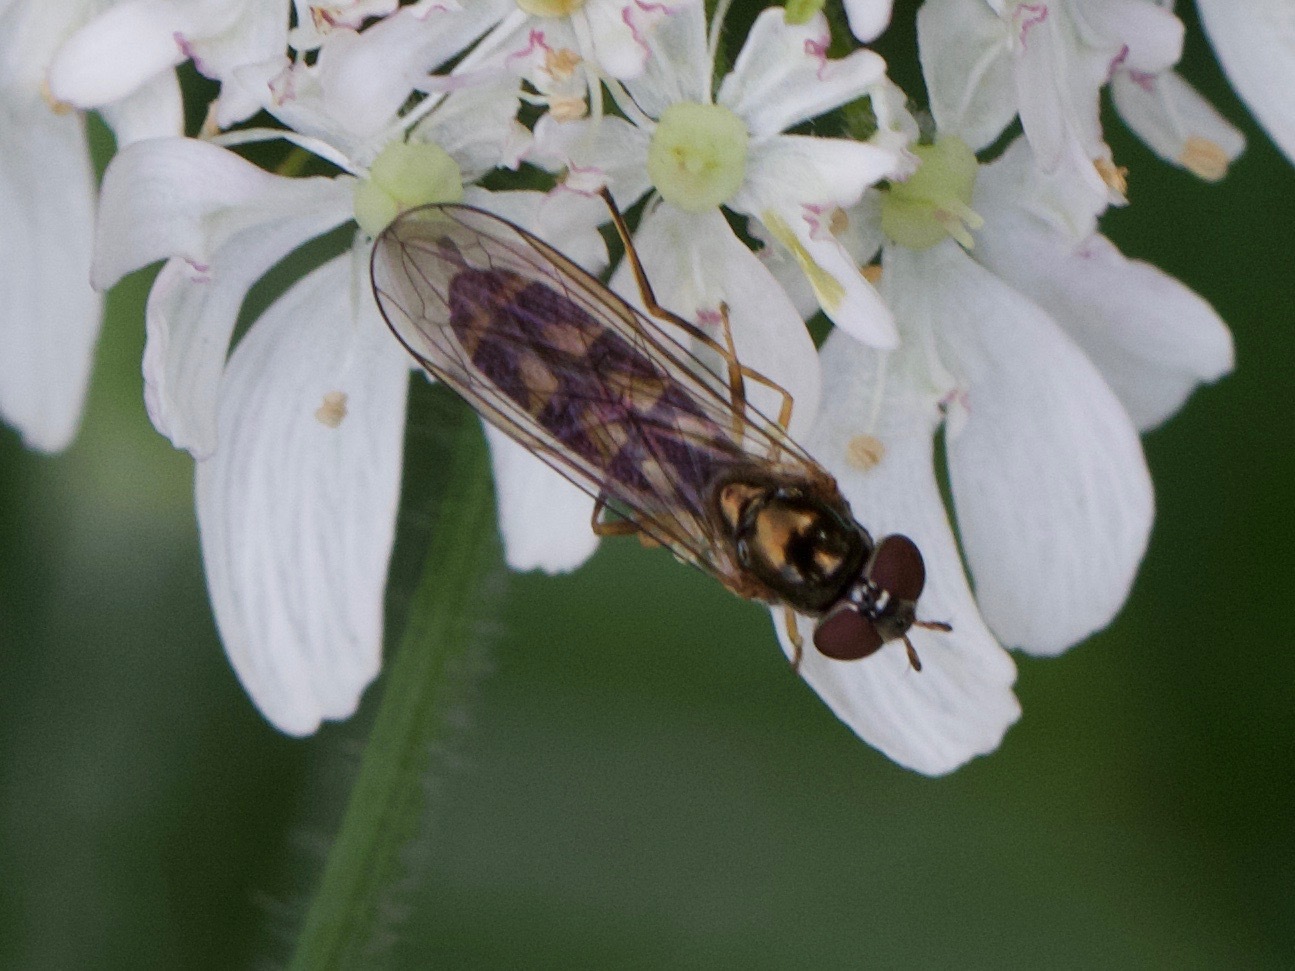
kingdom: Animalia
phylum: Arthropoda
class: Insecta
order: Diptera
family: Syrphidae
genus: Melanostoma
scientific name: Melanostoma scalare
